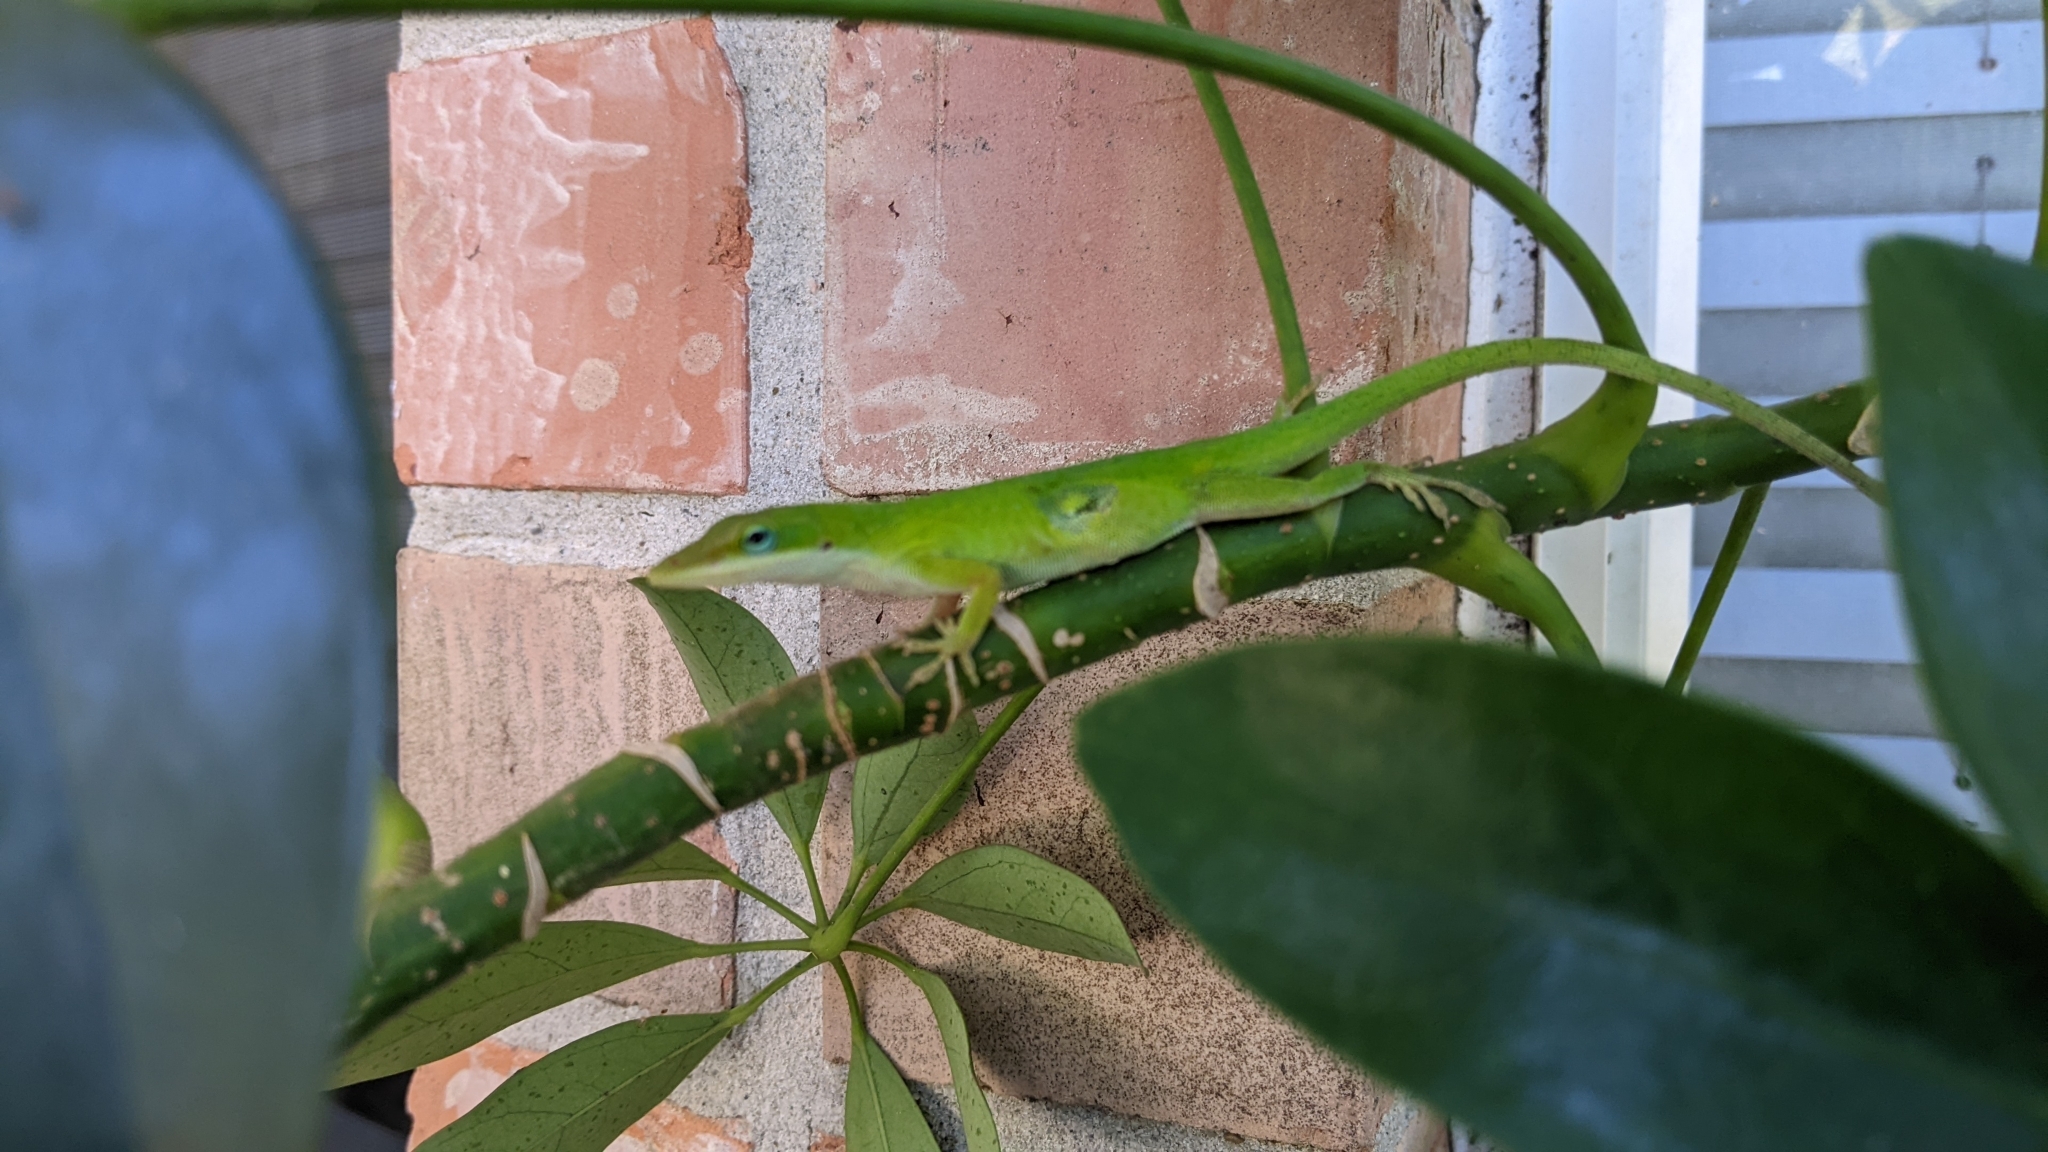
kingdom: Animalia
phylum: Chordata
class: Squamata
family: Dactyloidae
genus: Anolis
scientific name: Anolis carolinensis
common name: Green anole
